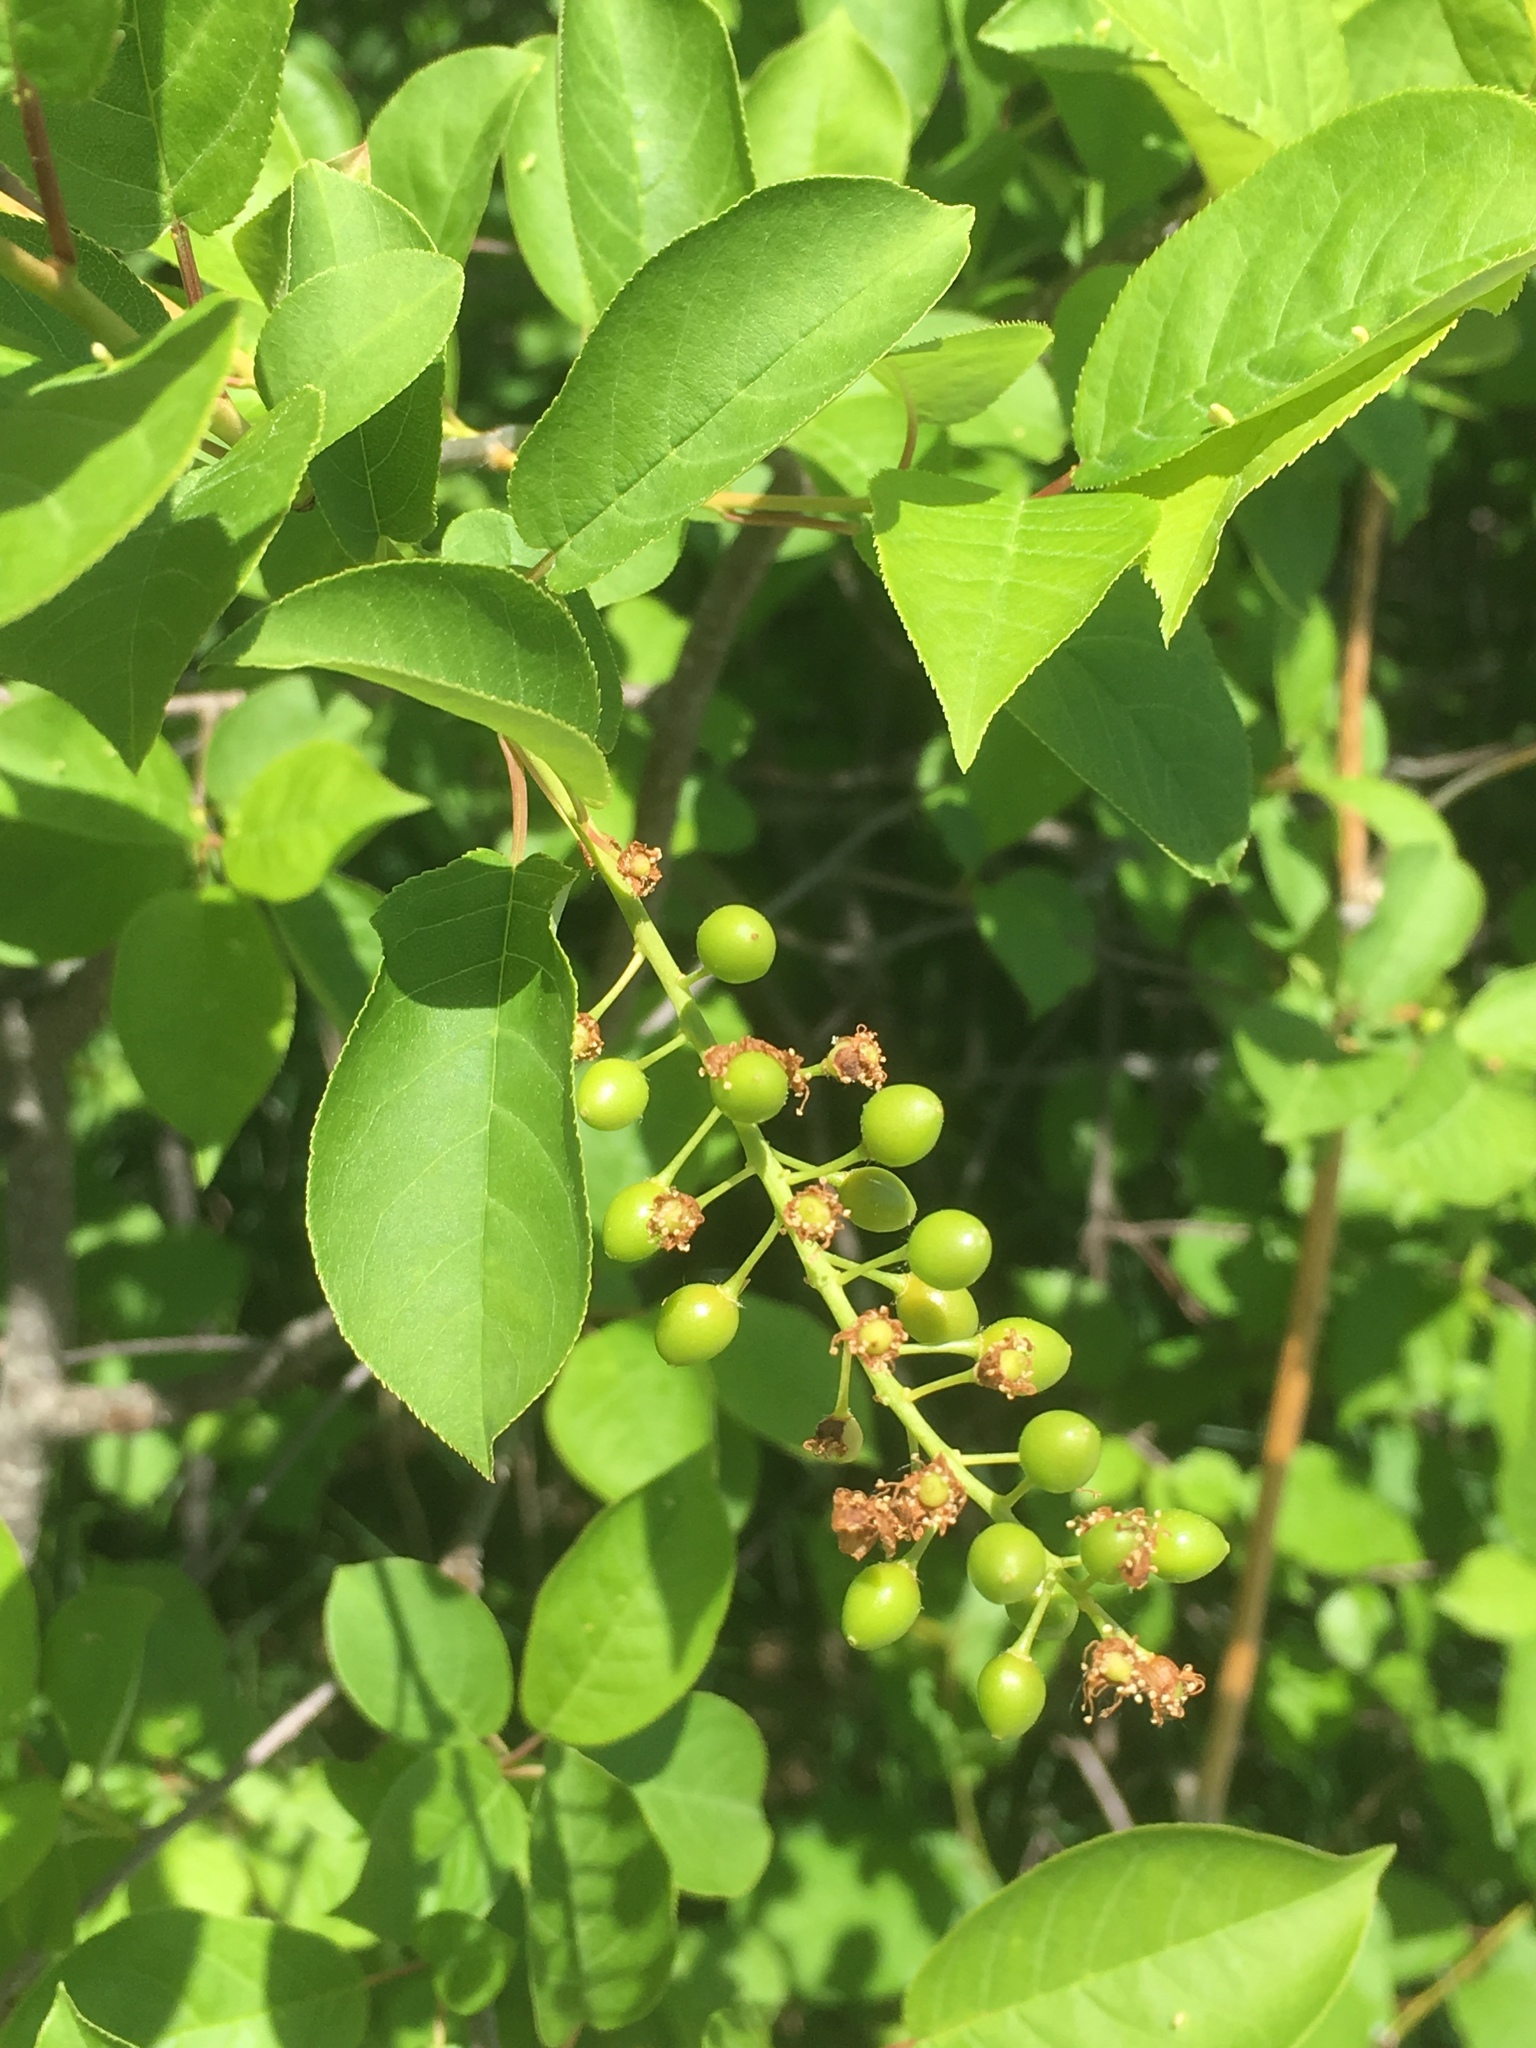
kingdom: Plantae
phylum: Tracheophyta
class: Magnoliopsida
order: Rosales
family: Rosaceae
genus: Prunus
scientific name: Prunus virginiana
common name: Chokecherry
